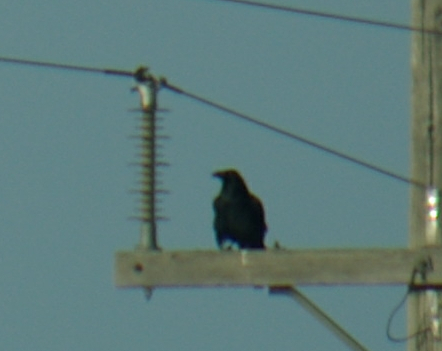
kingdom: Animalia
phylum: Chordata
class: Aves
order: Passeriformes
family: Corvidae
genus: Corvus
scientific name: Corvus corax
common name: Common raven
